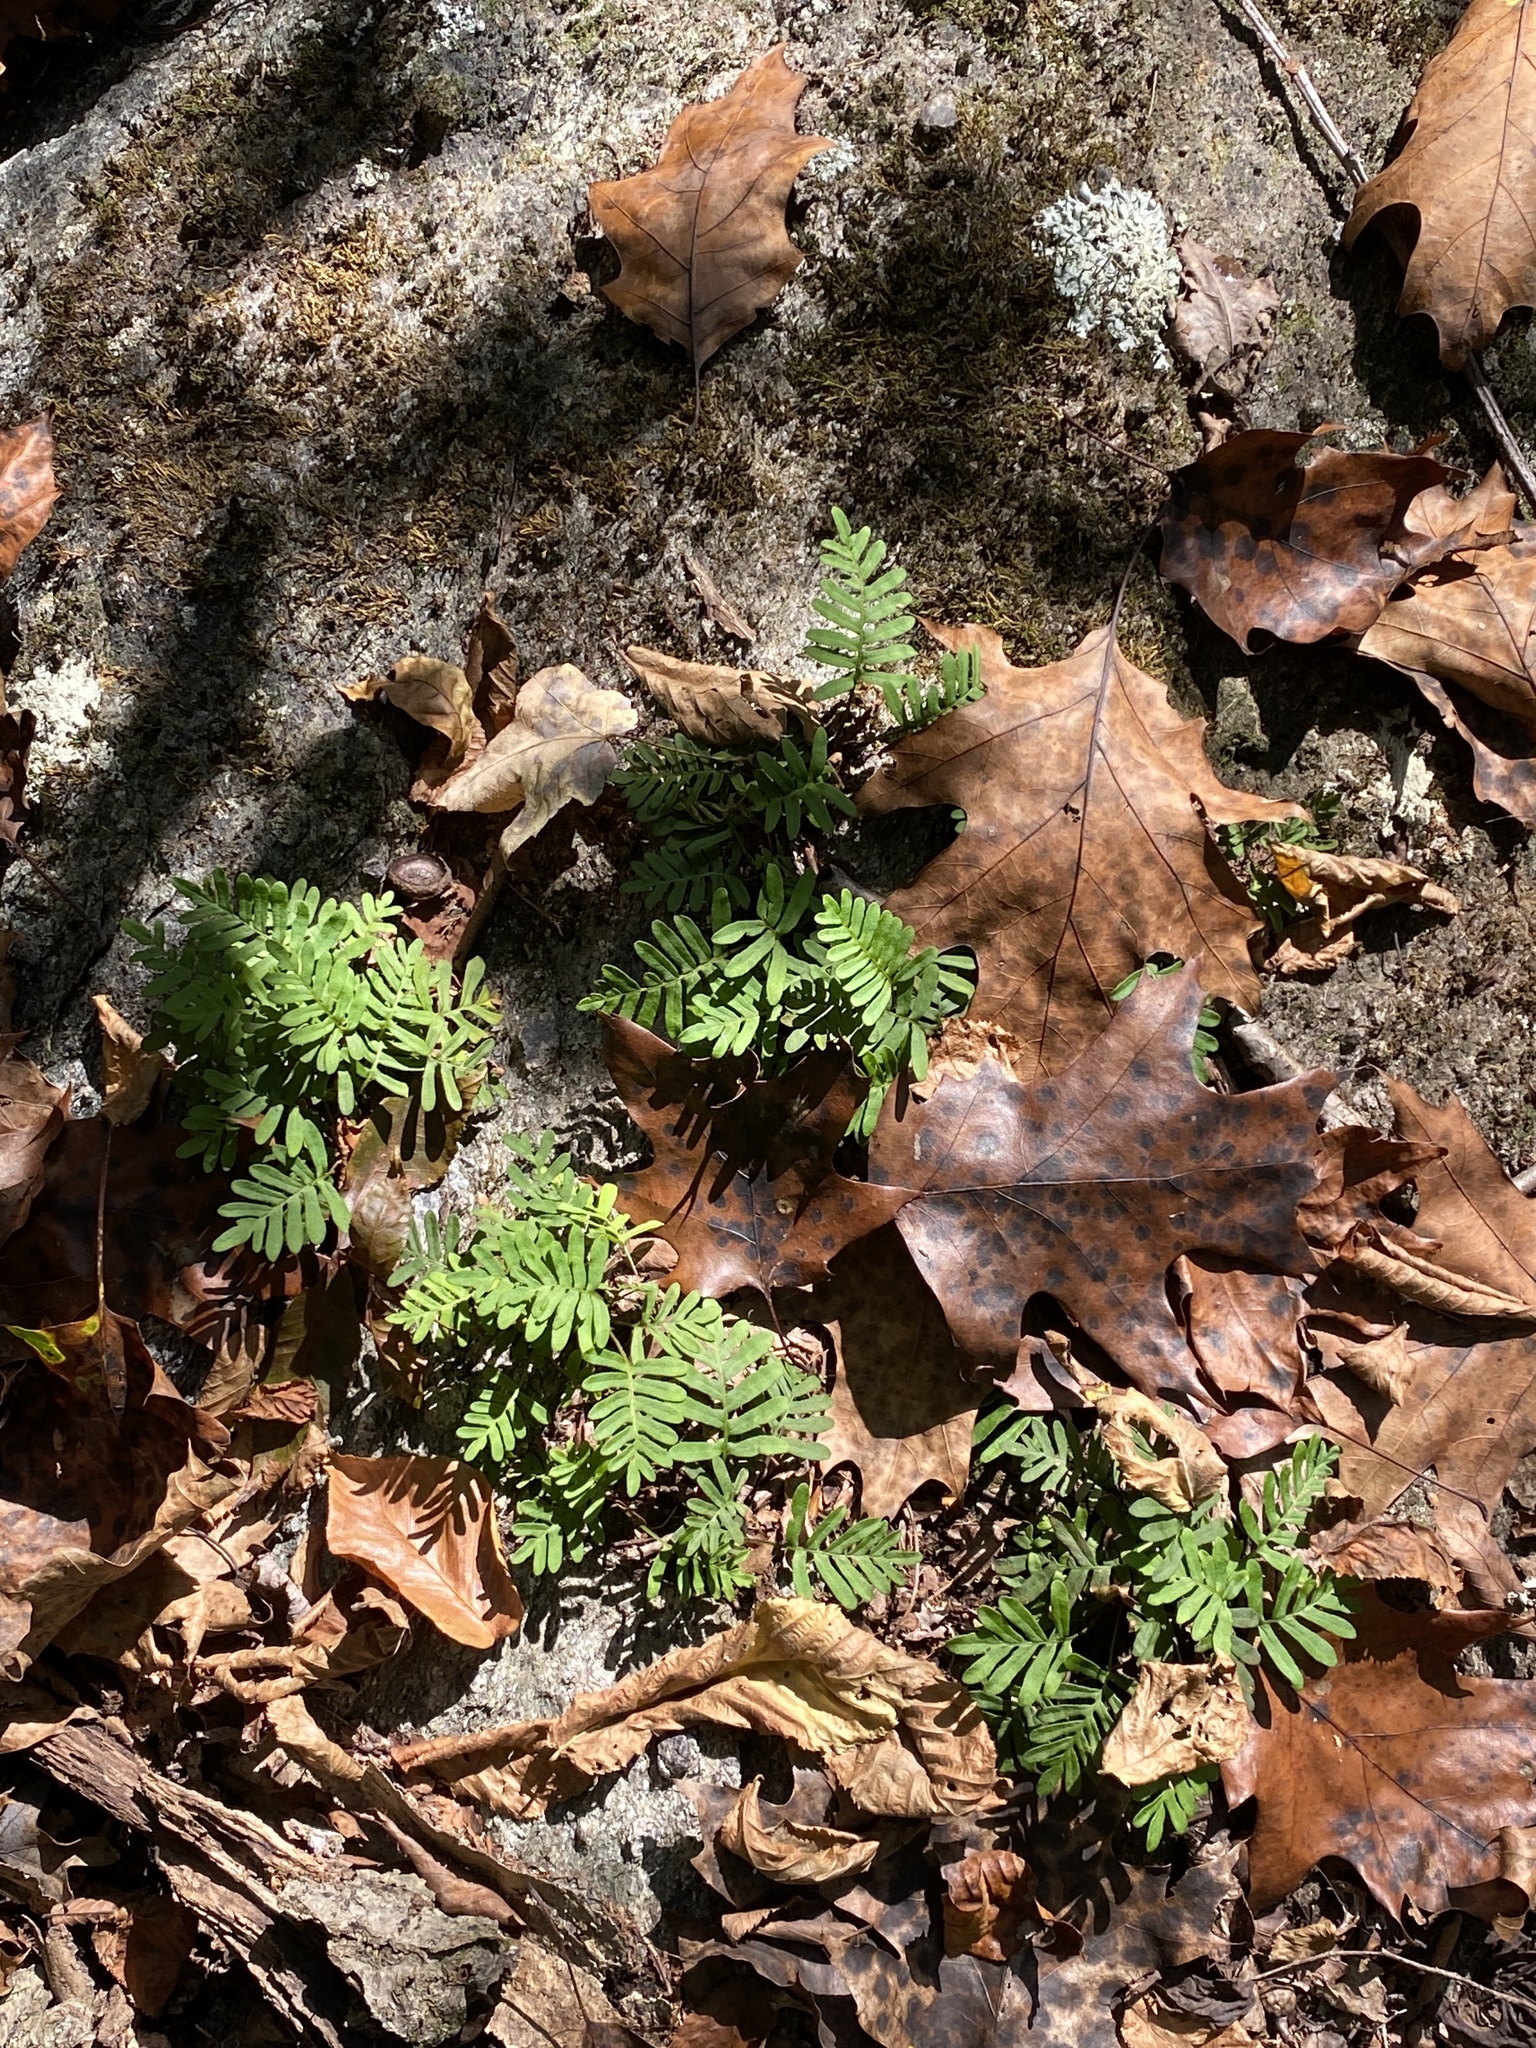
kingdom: Plantae
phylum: Tracheophyta
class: Polypodiopsida
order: Polypodiales
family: Polypodiaceae
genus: Pleopeltis
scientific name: Pleopeltis michauxiana
